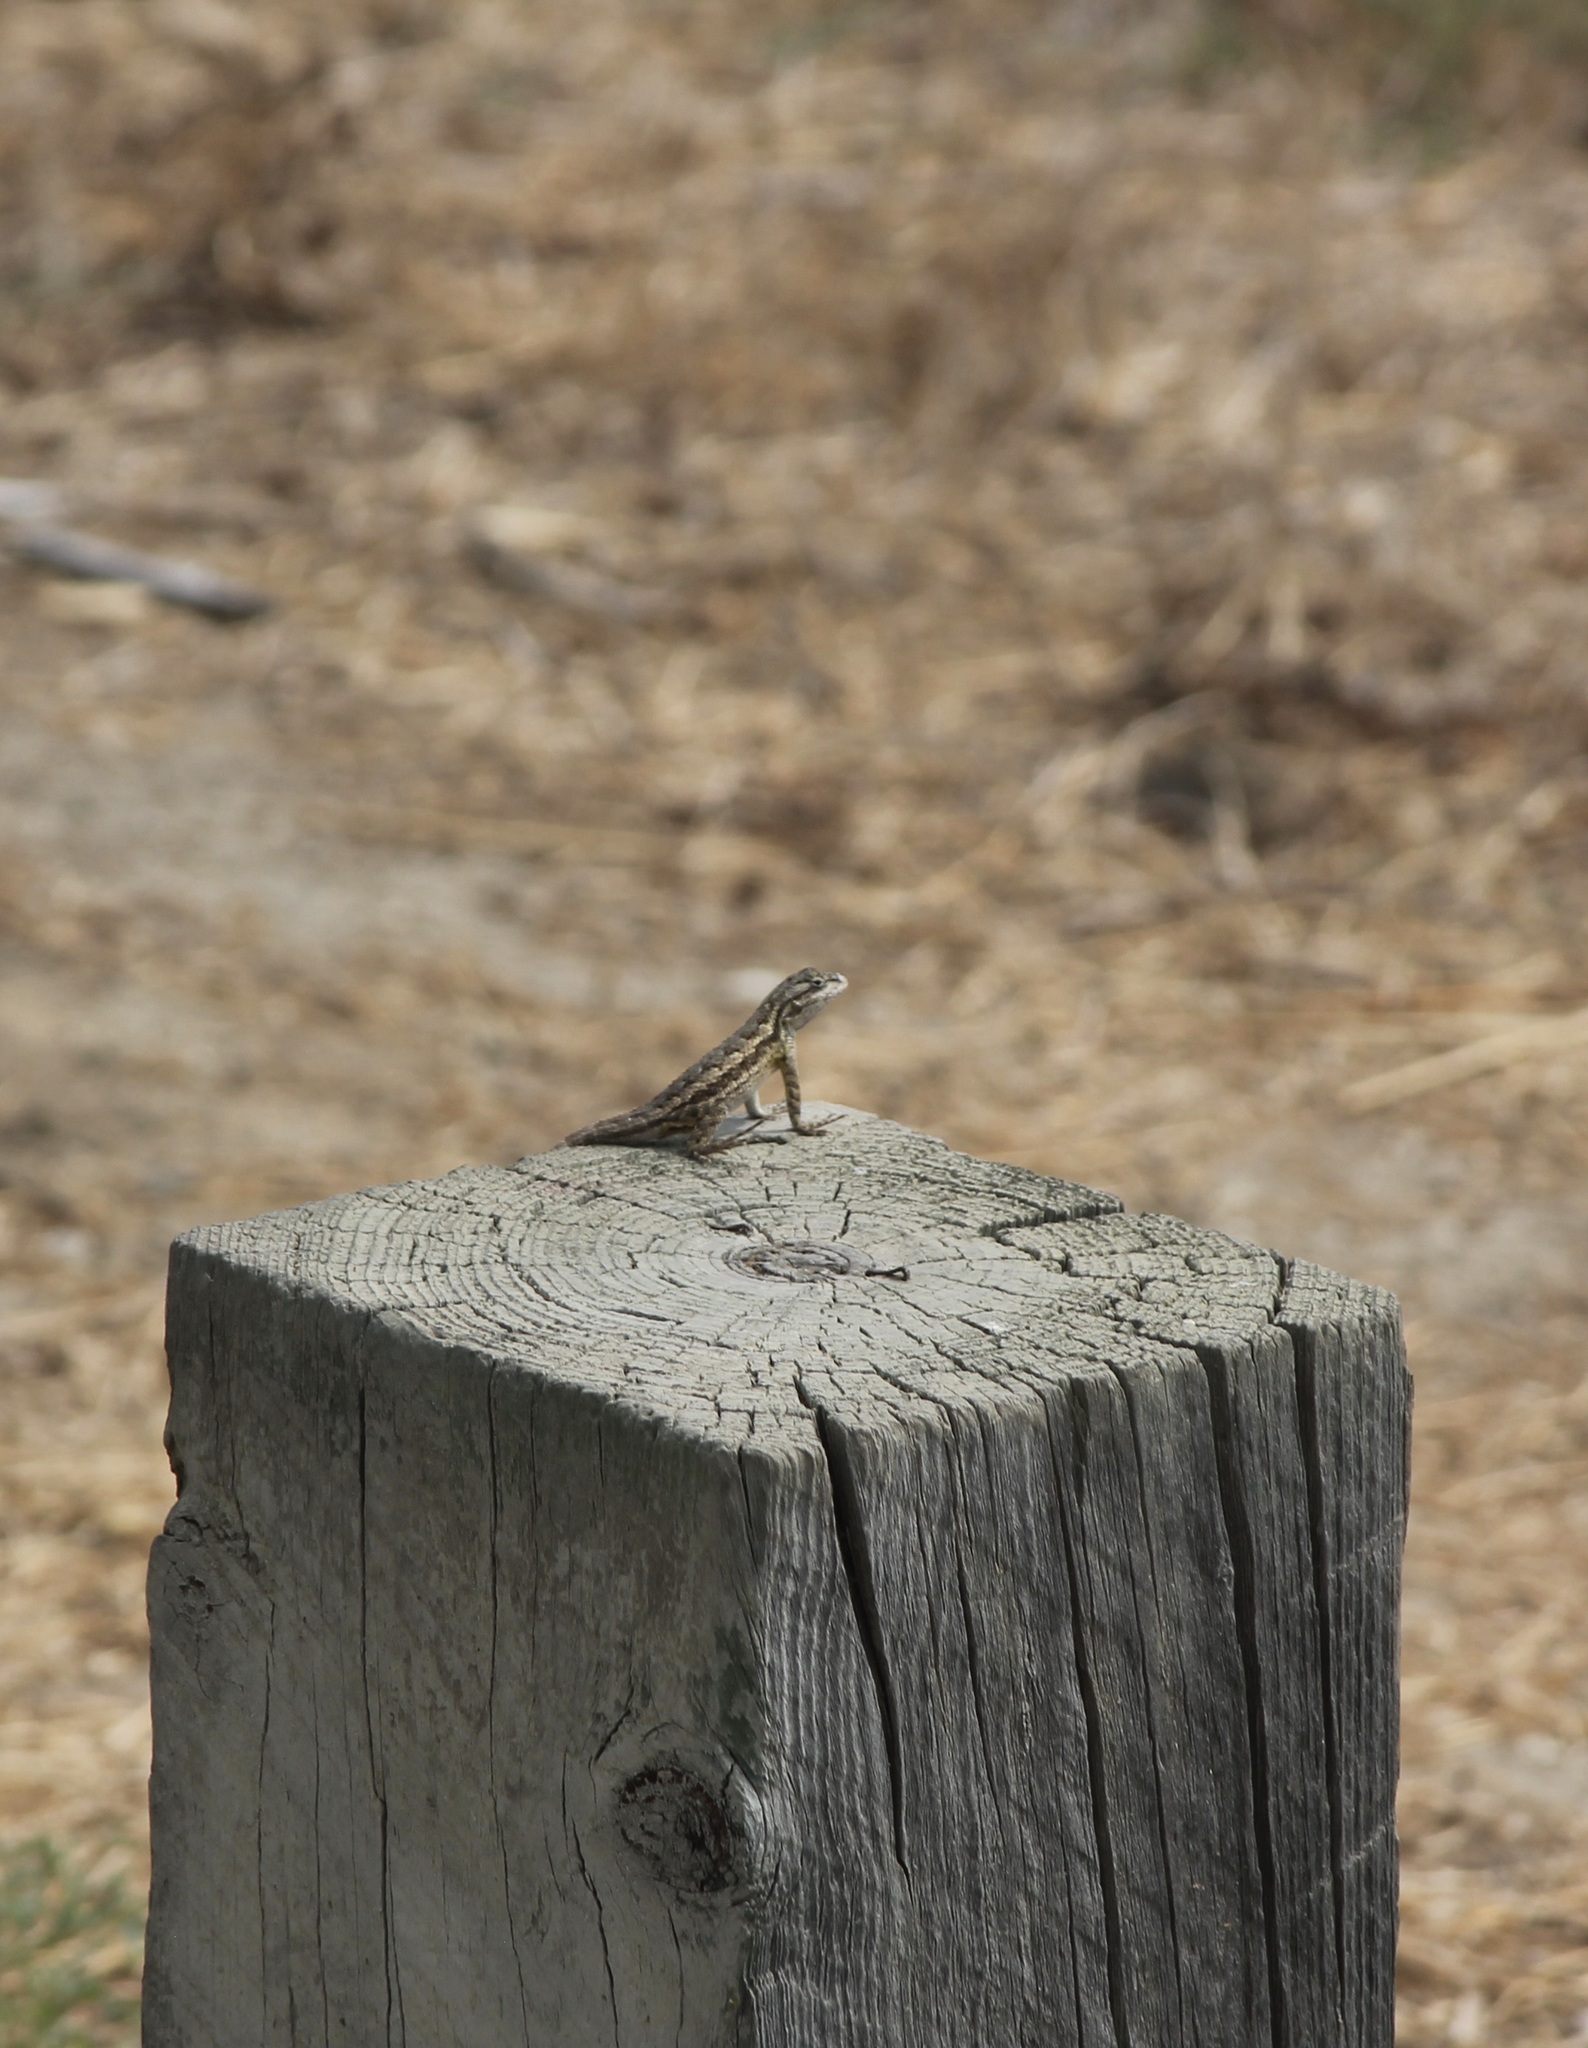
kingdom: Animalia
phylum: Chordata
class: Squamata
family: Phrynosomatidae
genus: Sceloporus
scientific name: Sceloporus occidentalis
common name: Western fence lizard
